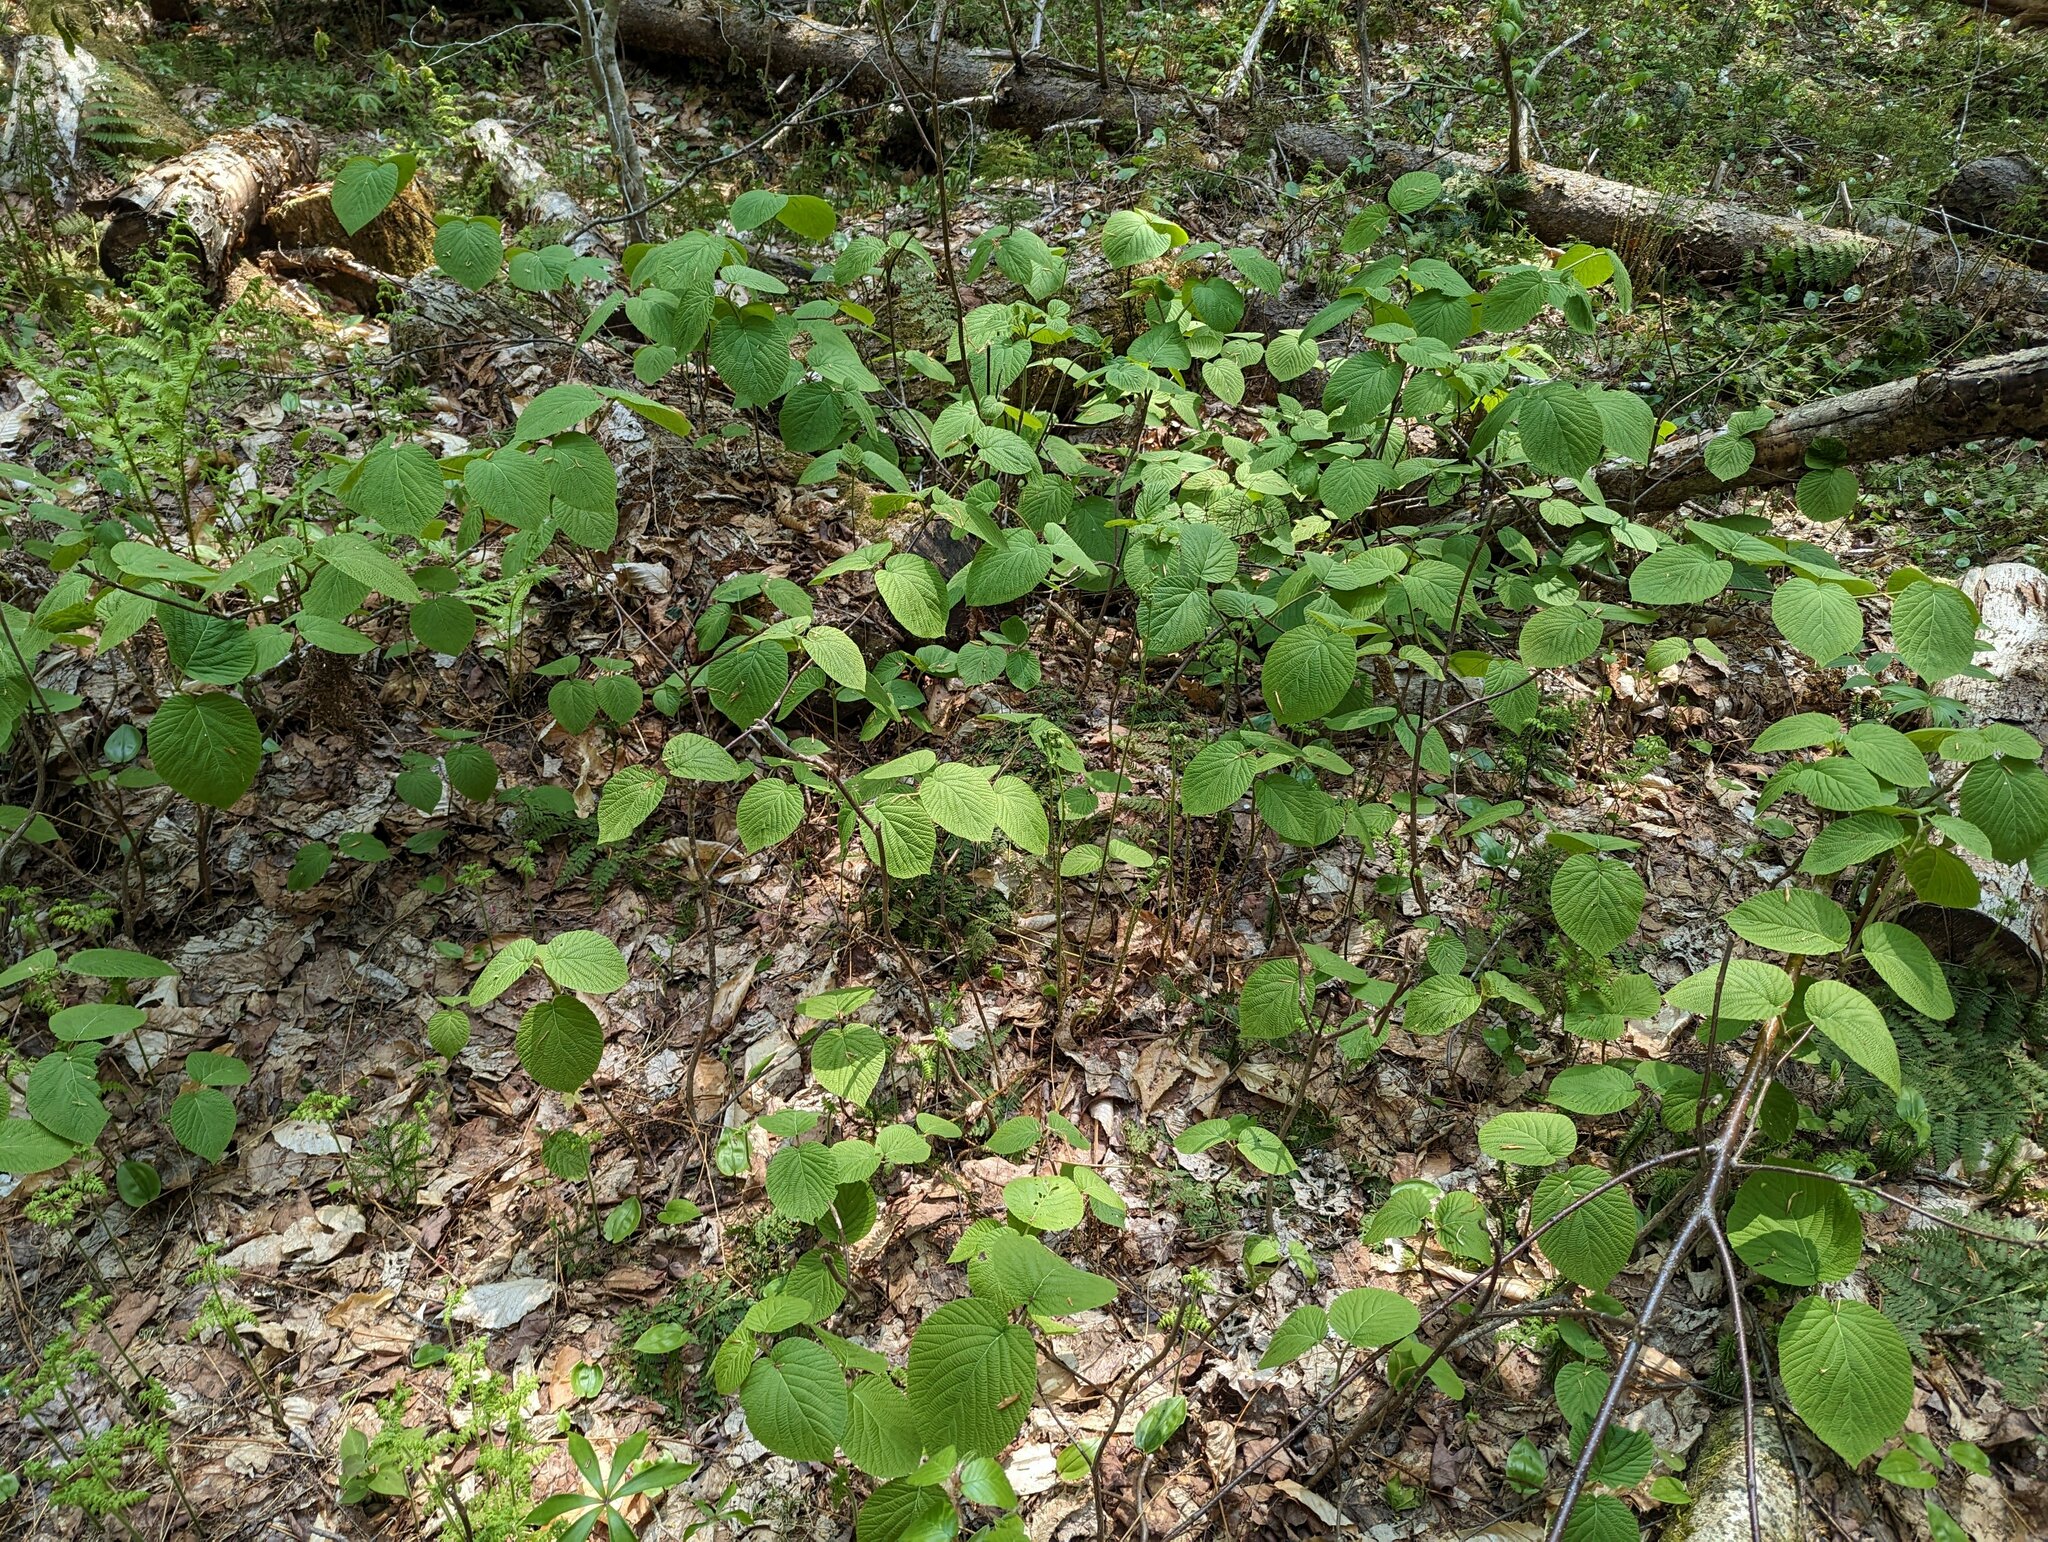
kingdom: Plantae
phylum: Tracheophyta
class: Magnoliopsida
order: Dipsacales
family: Viburnaceae
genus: Viburnum
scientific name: Viburnum lantanoides
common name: Hobblebush
